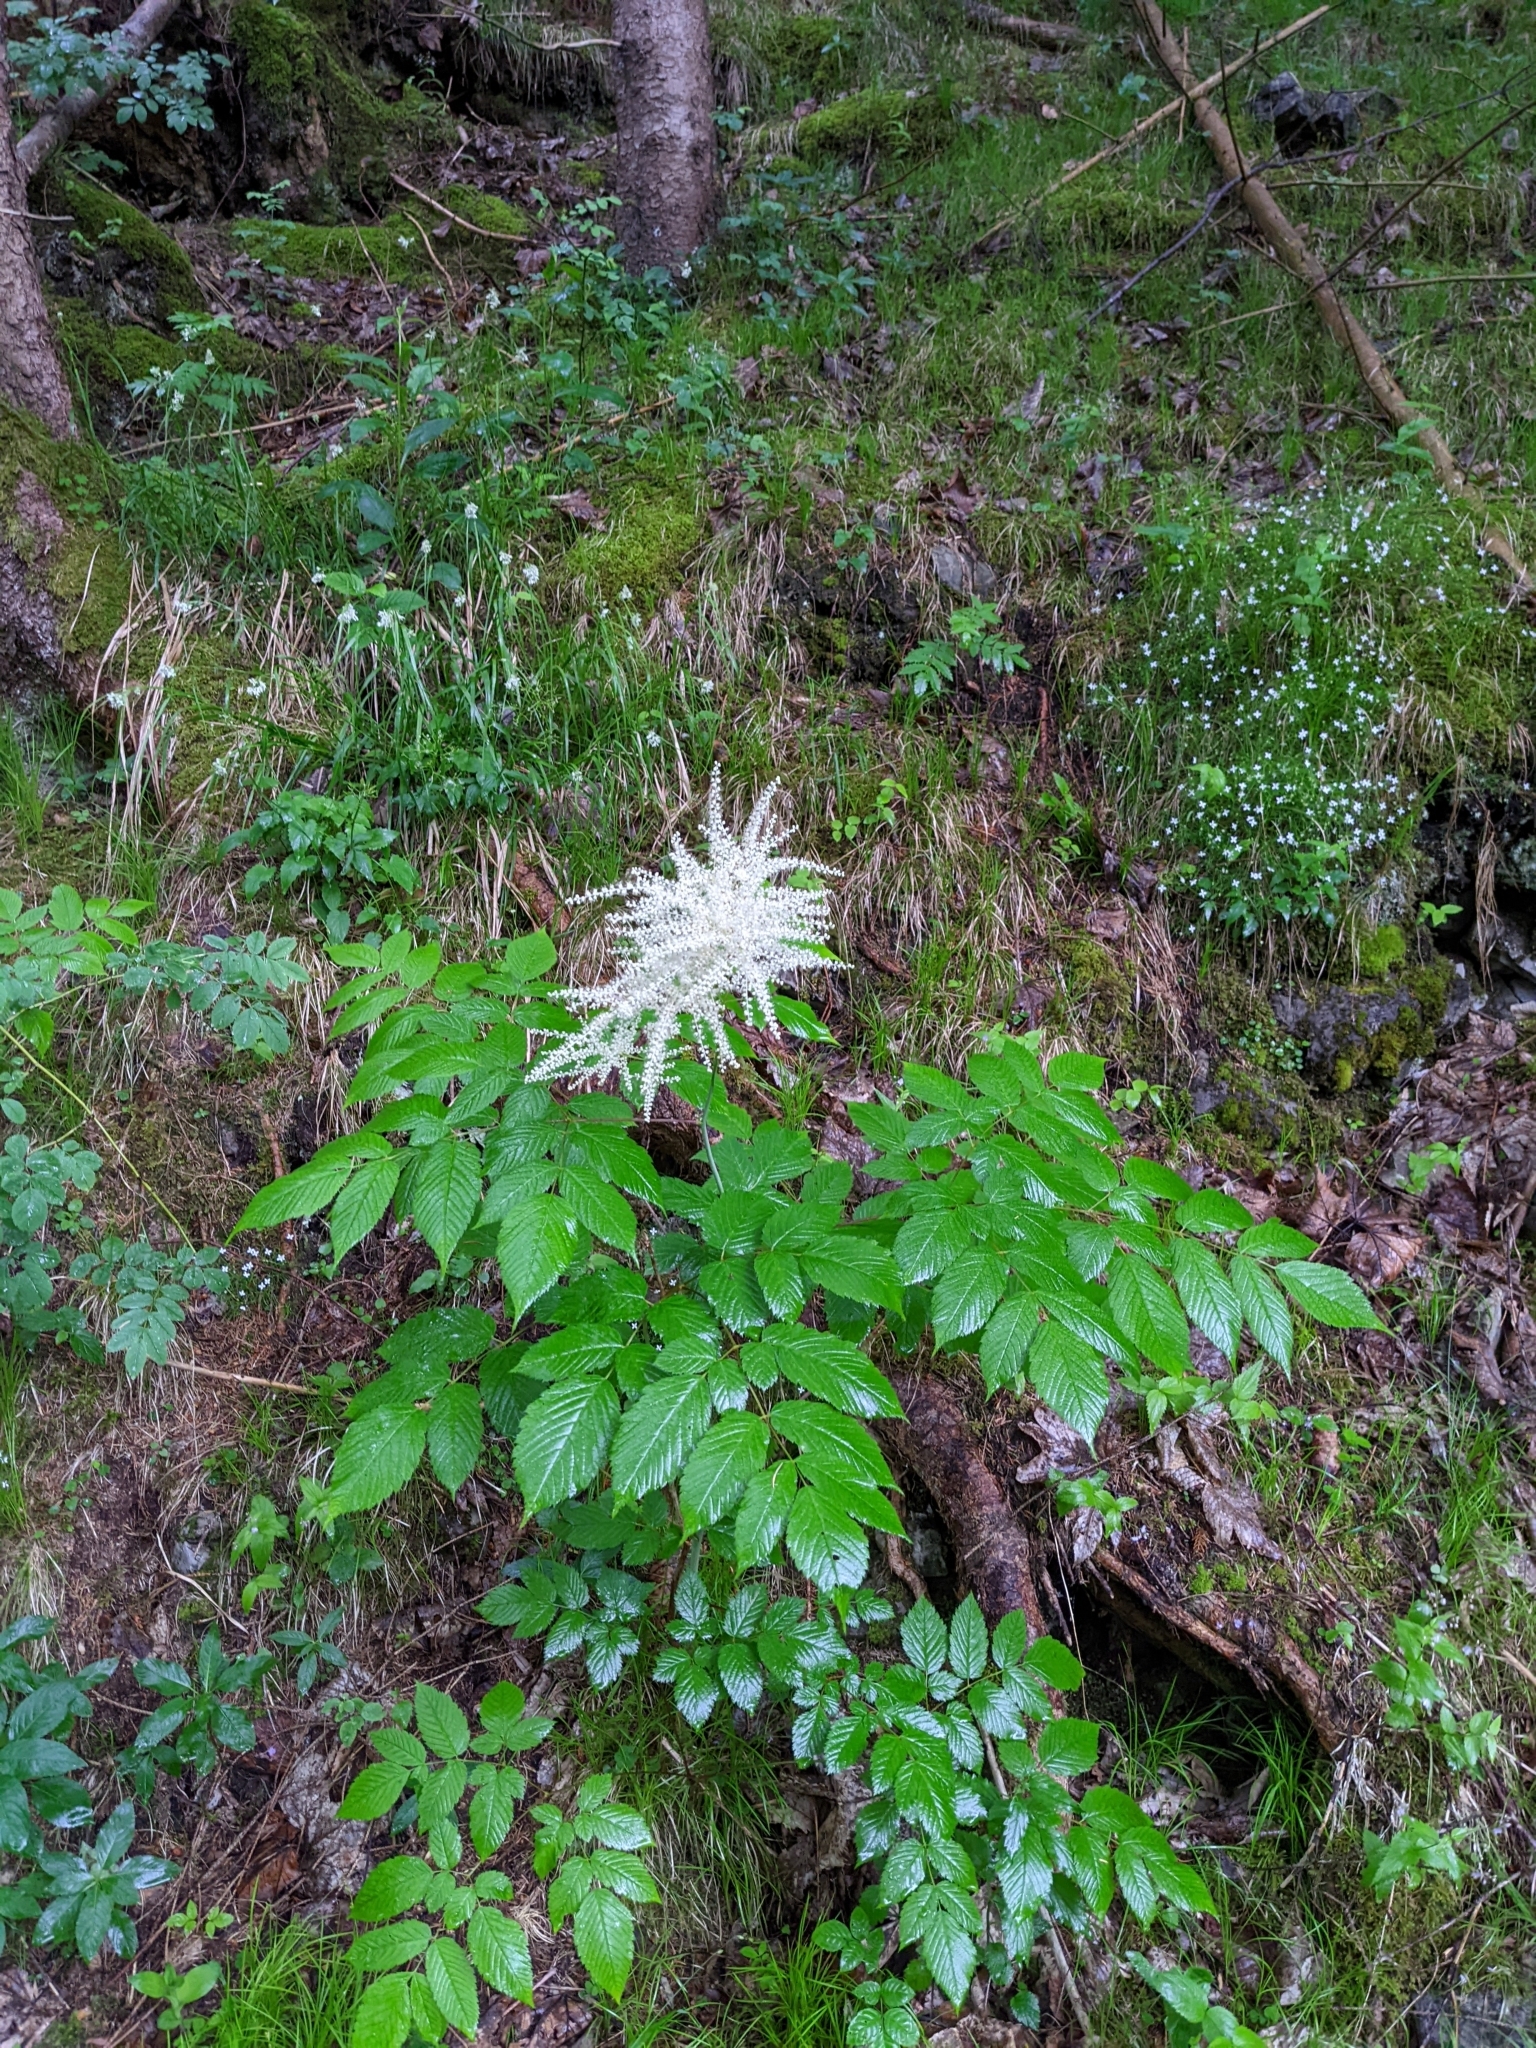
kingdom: Plantae
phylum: Tracheophyta
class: Magnoliopsida
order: Rosales
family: Rosaceae
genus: Aruncus
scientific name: Aruncus dioicus
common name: Buck's-beard
